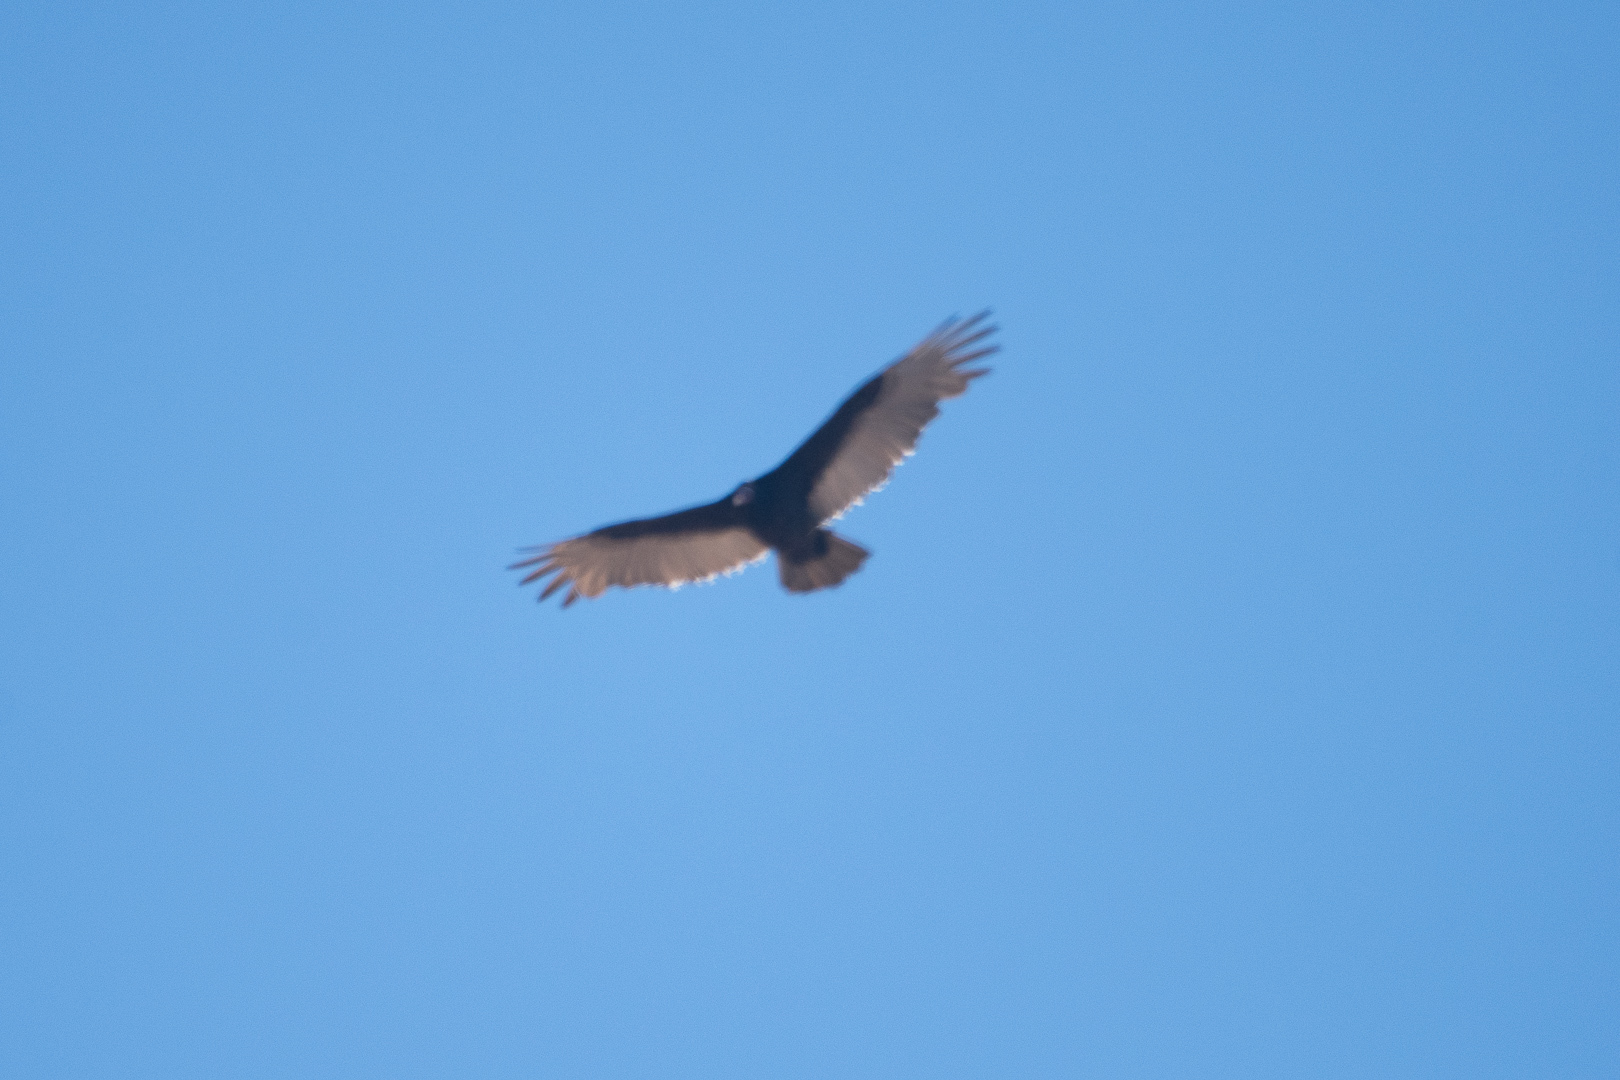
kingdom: Animalia
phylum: Chordata
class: Aves
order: Accipitriformes
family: Cathartidae
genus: Cathartes
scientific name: Cathartes aura
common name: Turkey vulture
